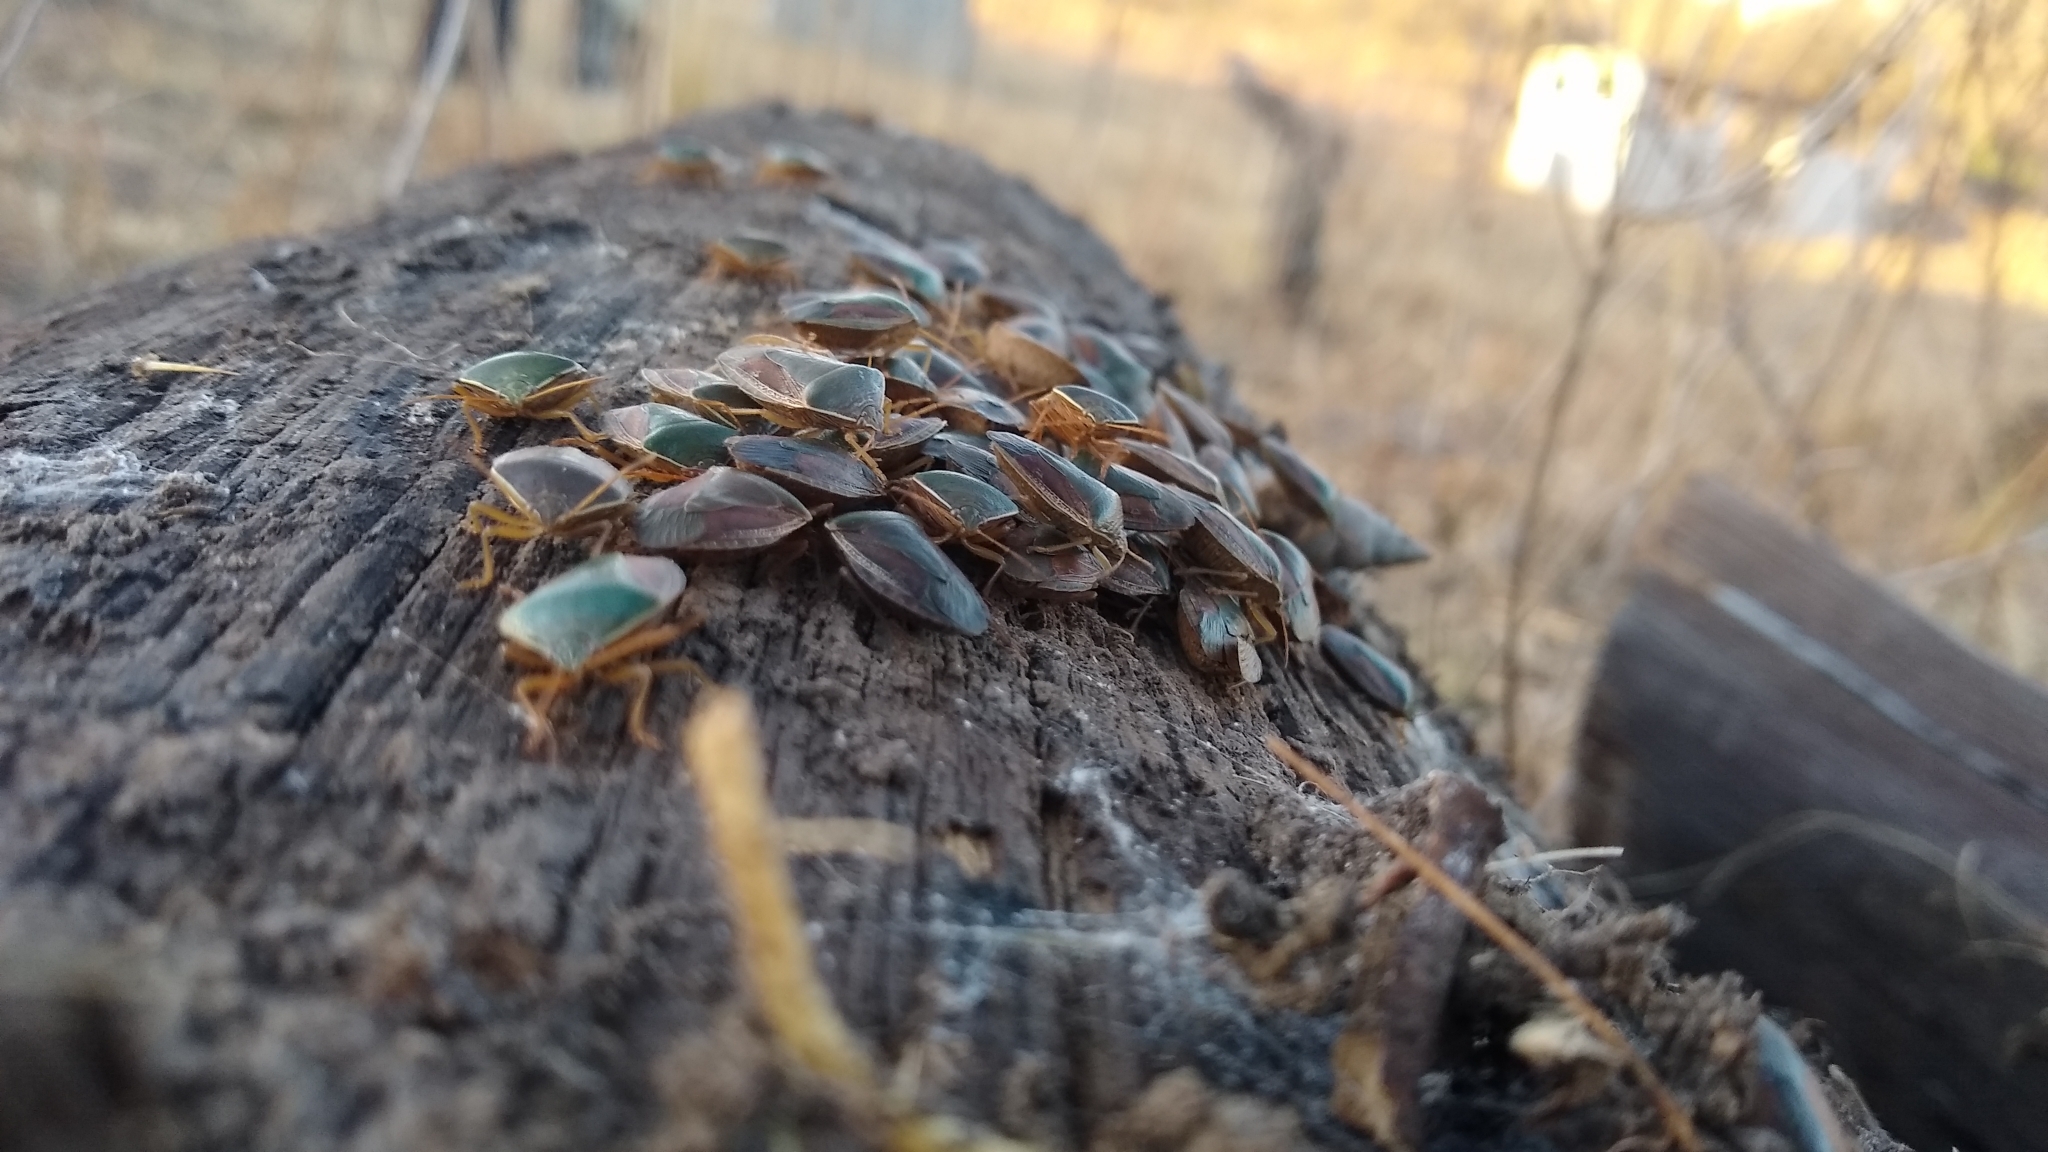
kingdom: Animalia
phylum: Arthropoda
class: Insecta
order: Hemiptera
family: Pentatomidae
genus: Edessa
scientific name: Edessa meditabunda
